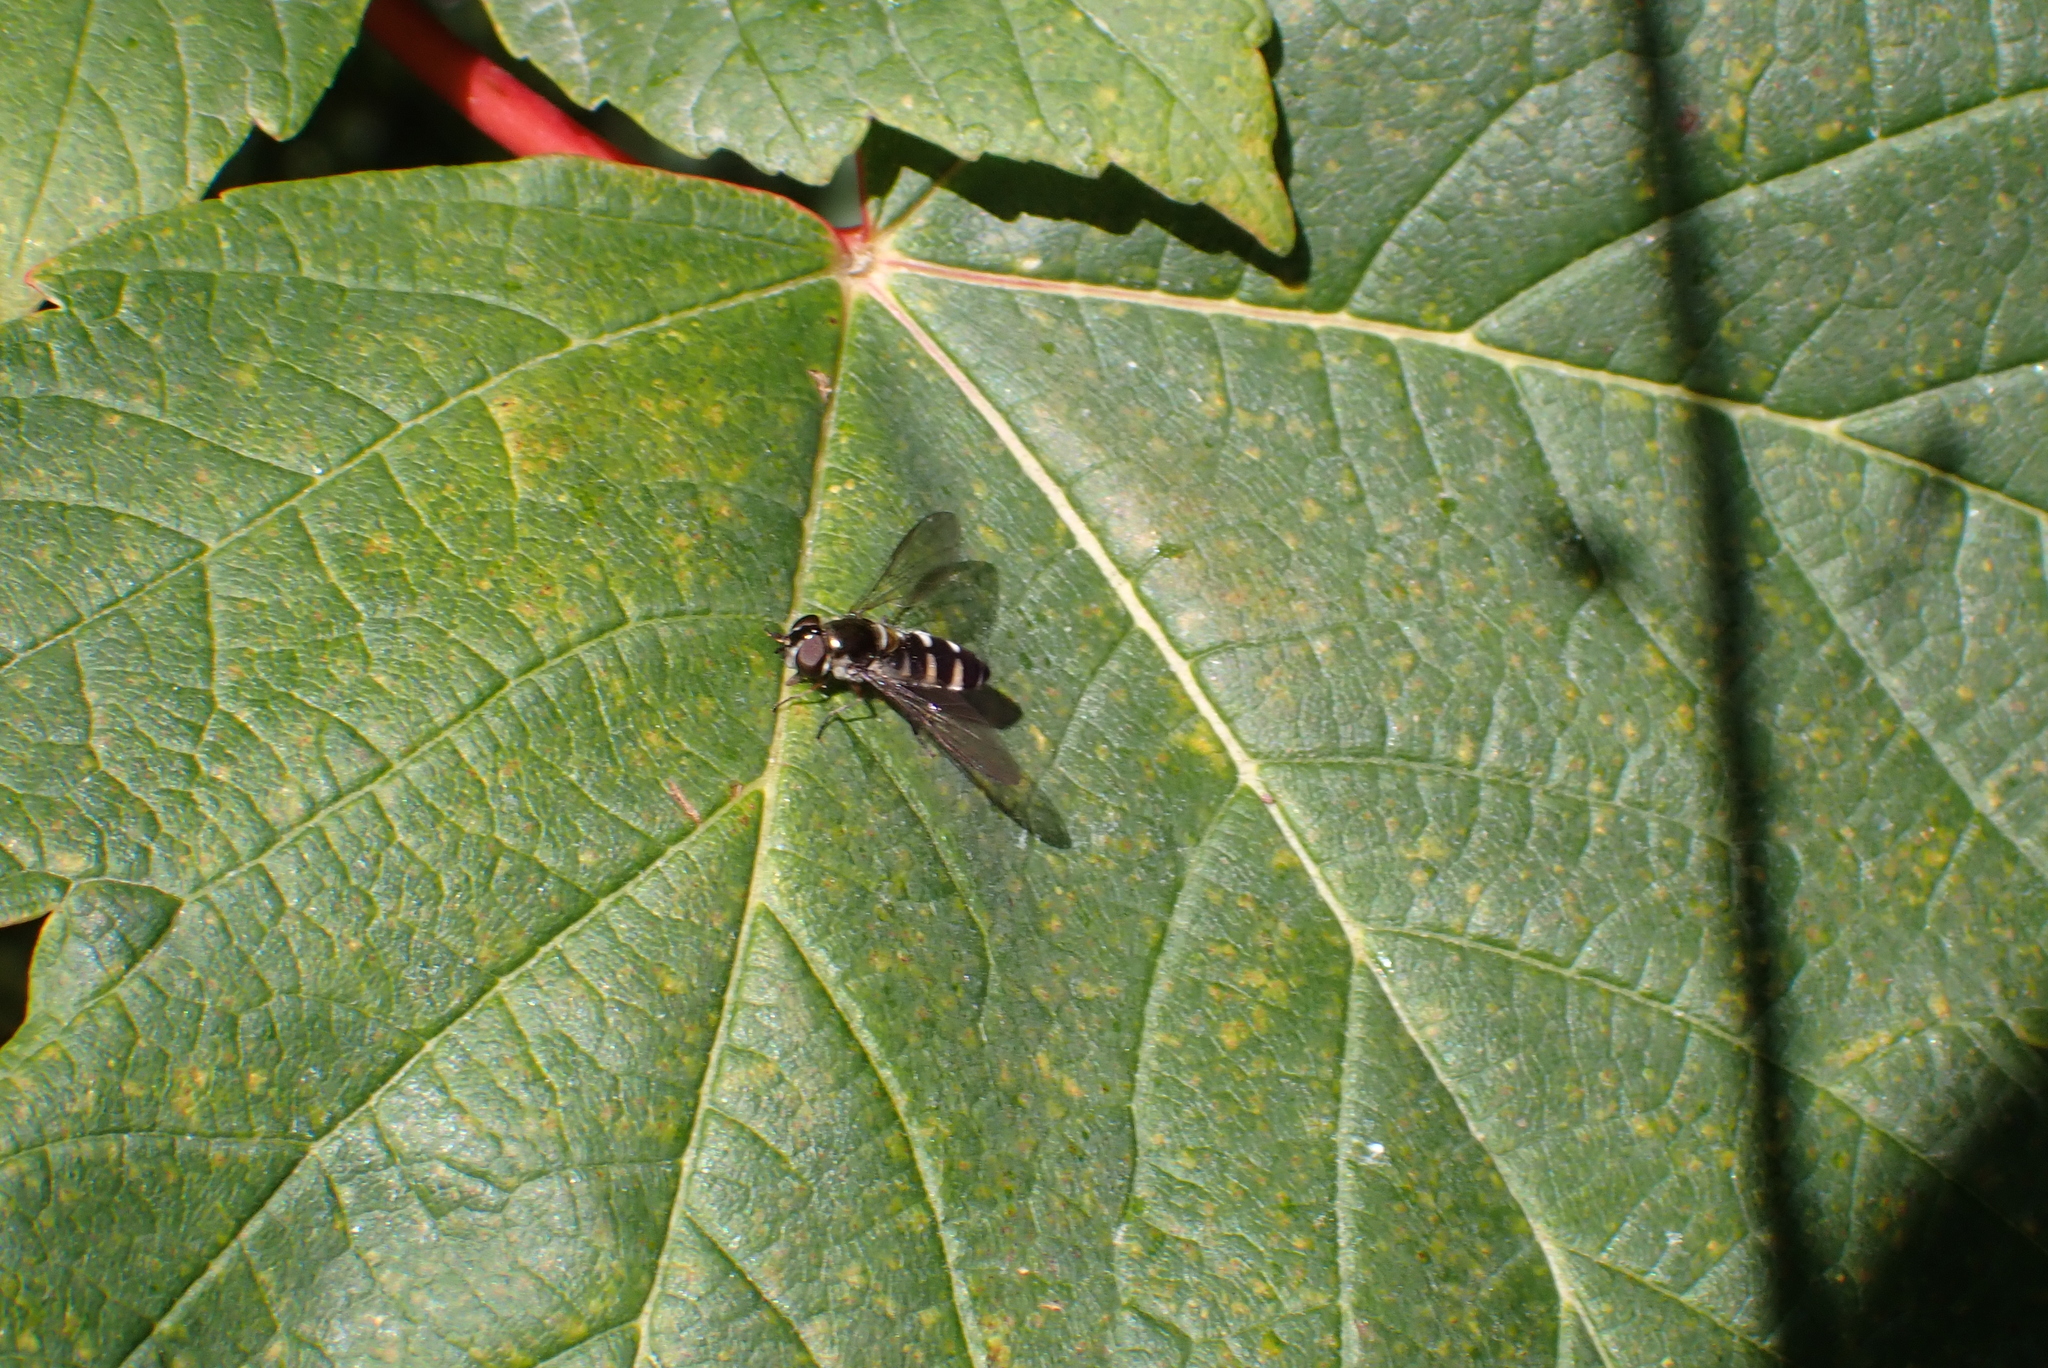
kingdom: Animalia
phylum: Arthropoda
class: Insecta
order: Diptera
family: Syrphidae
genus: Melangyna
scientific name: Melangyna novaezelandiae
